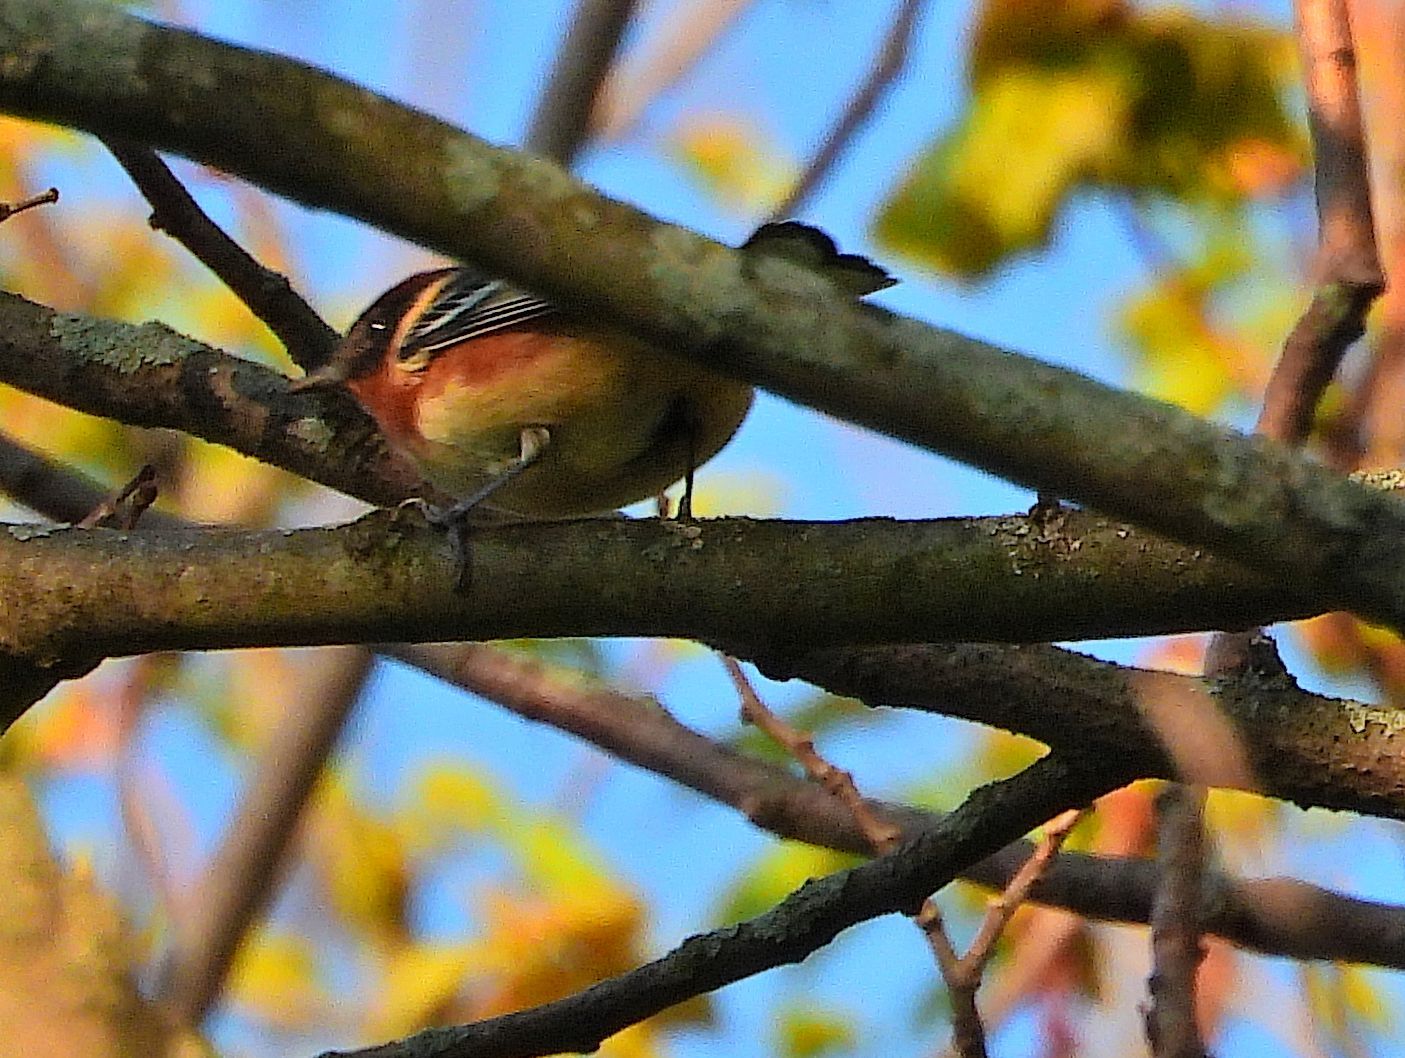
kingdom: Animalia
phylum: Chordata
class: Aves
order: Passeriformes
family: Parulidae
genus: Setophaga
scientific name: Setophaga castanea
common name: Bay-breasted warbler
